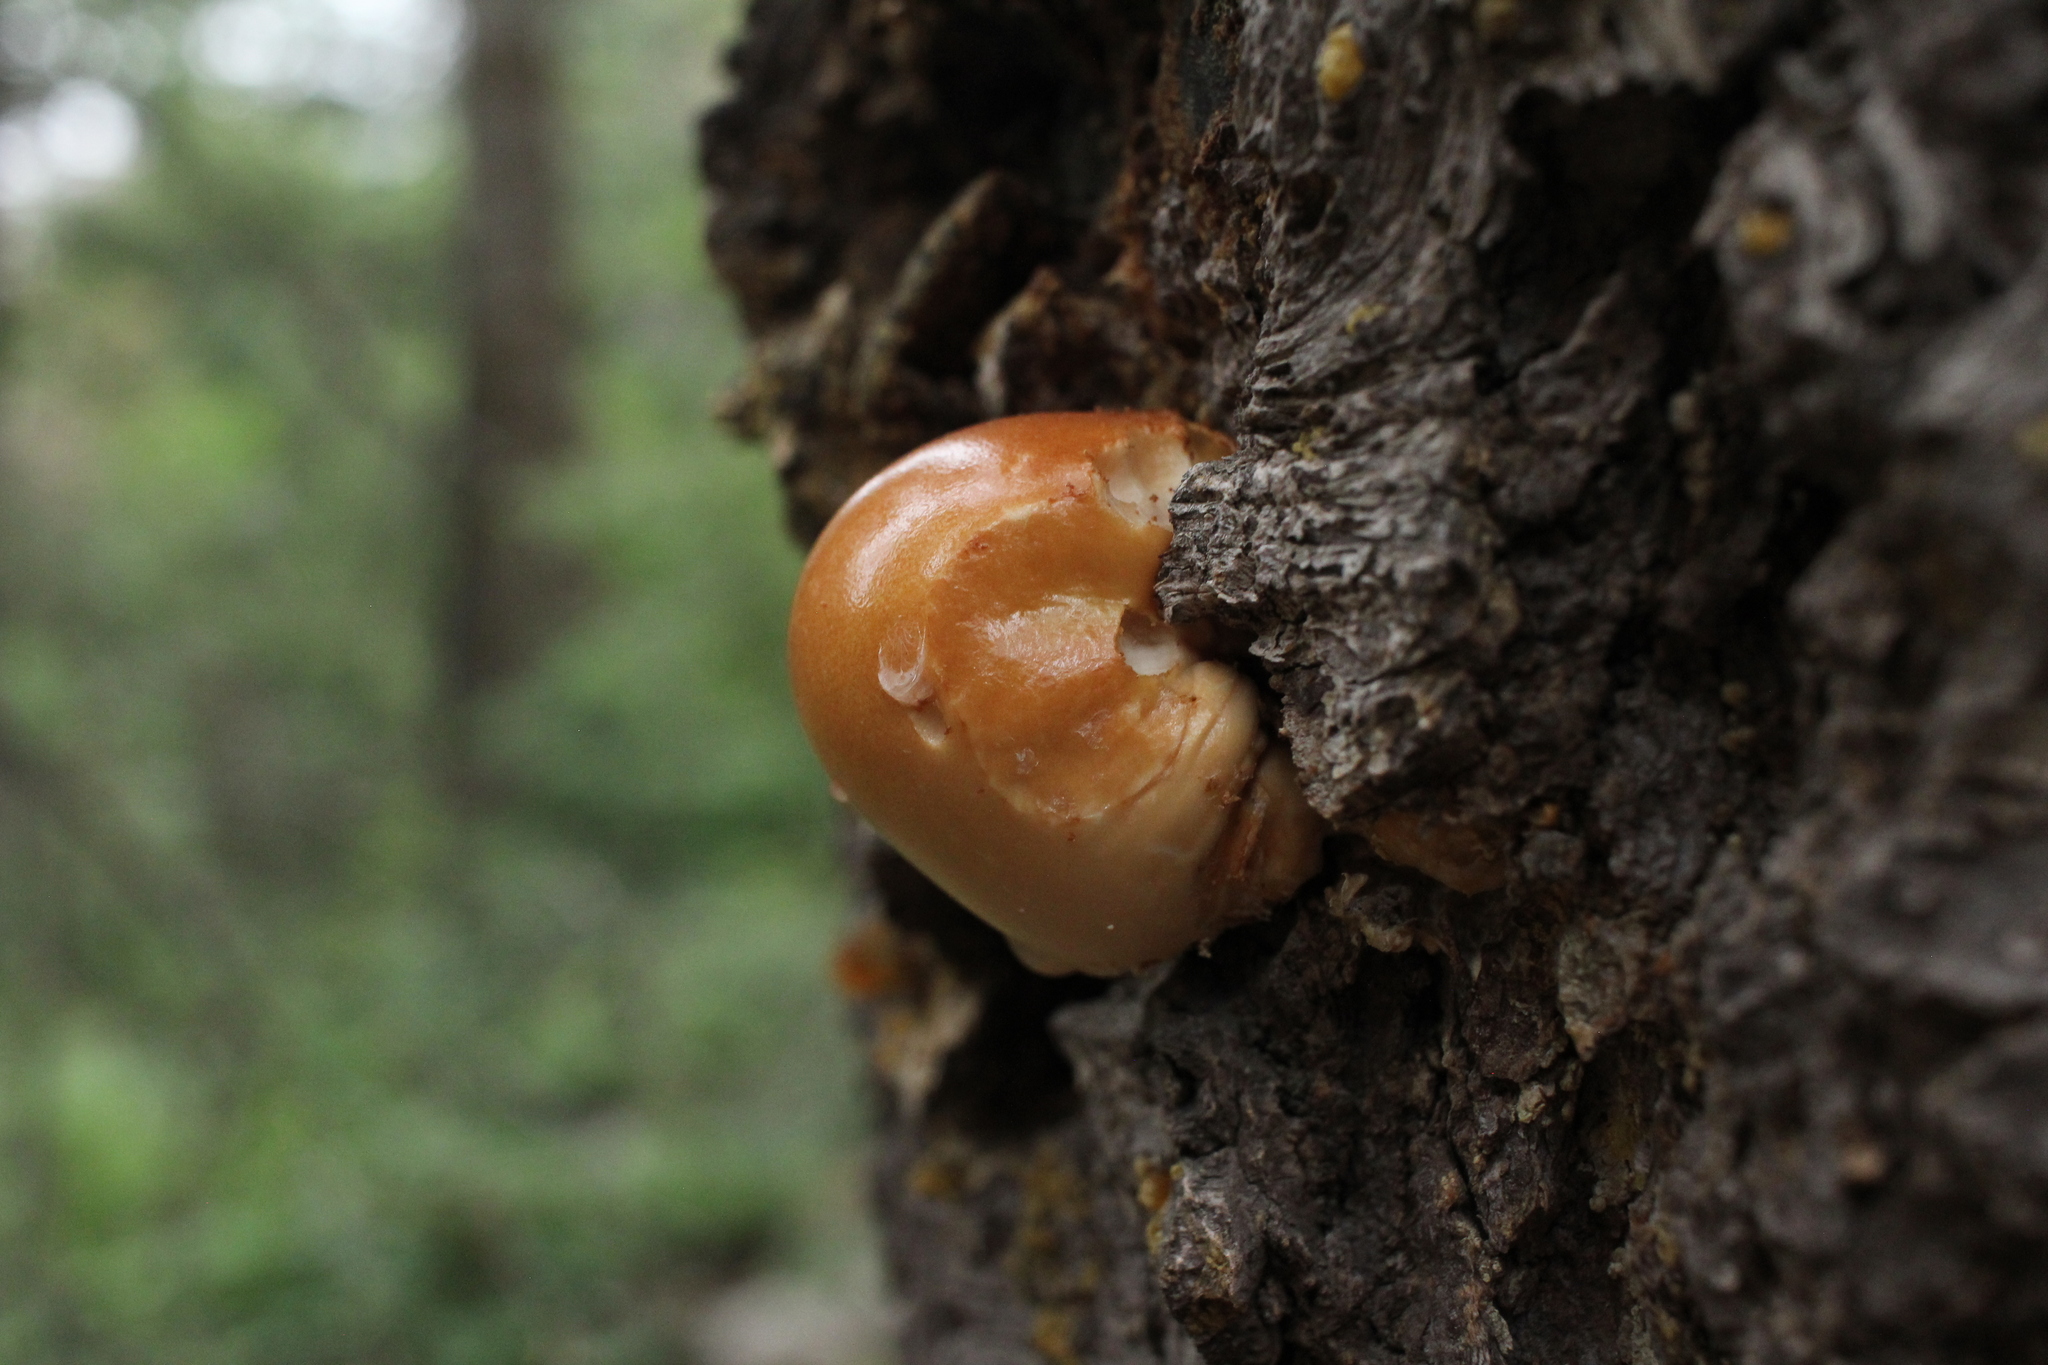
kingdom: Fungi
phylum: Basidiomycota
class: Agaricomycetes
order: Polyporales
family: Polyporaceae
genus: Cryptoporus
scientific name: Cryptoporus volvatus
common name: Veiled polypore
